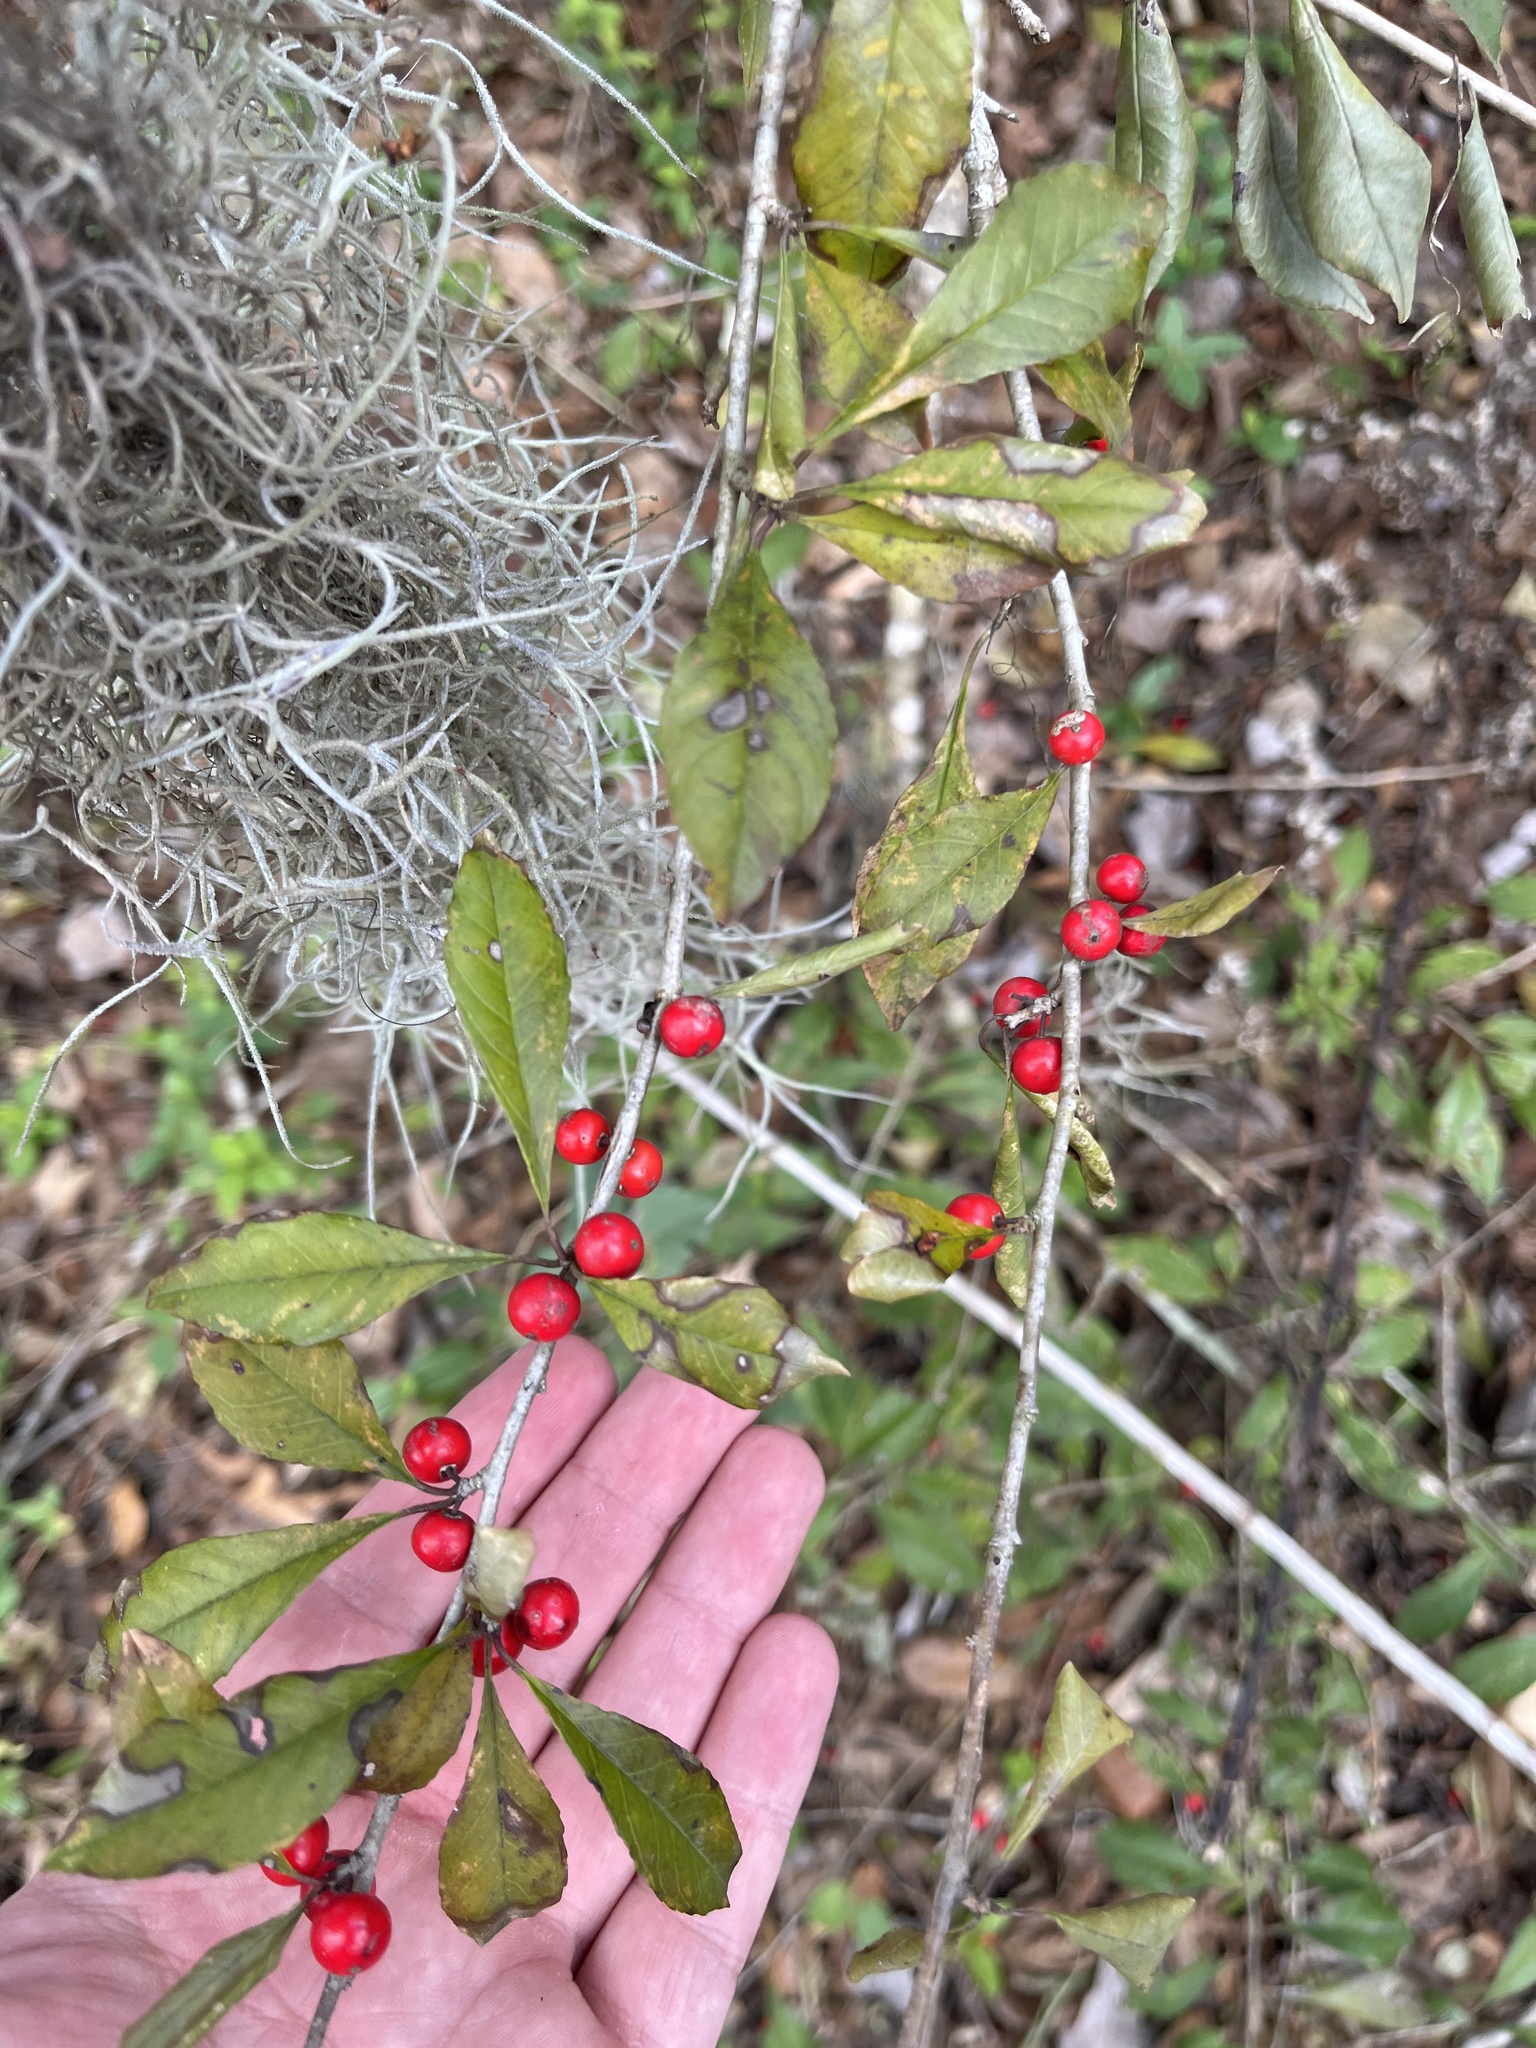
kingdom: Plantae
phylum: Tracheophyta
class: Magnoliopsida
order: Aquifoliales
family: Aquifoliaceae
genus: Ilex
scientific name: Ilex decidua
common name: Possum-haw
